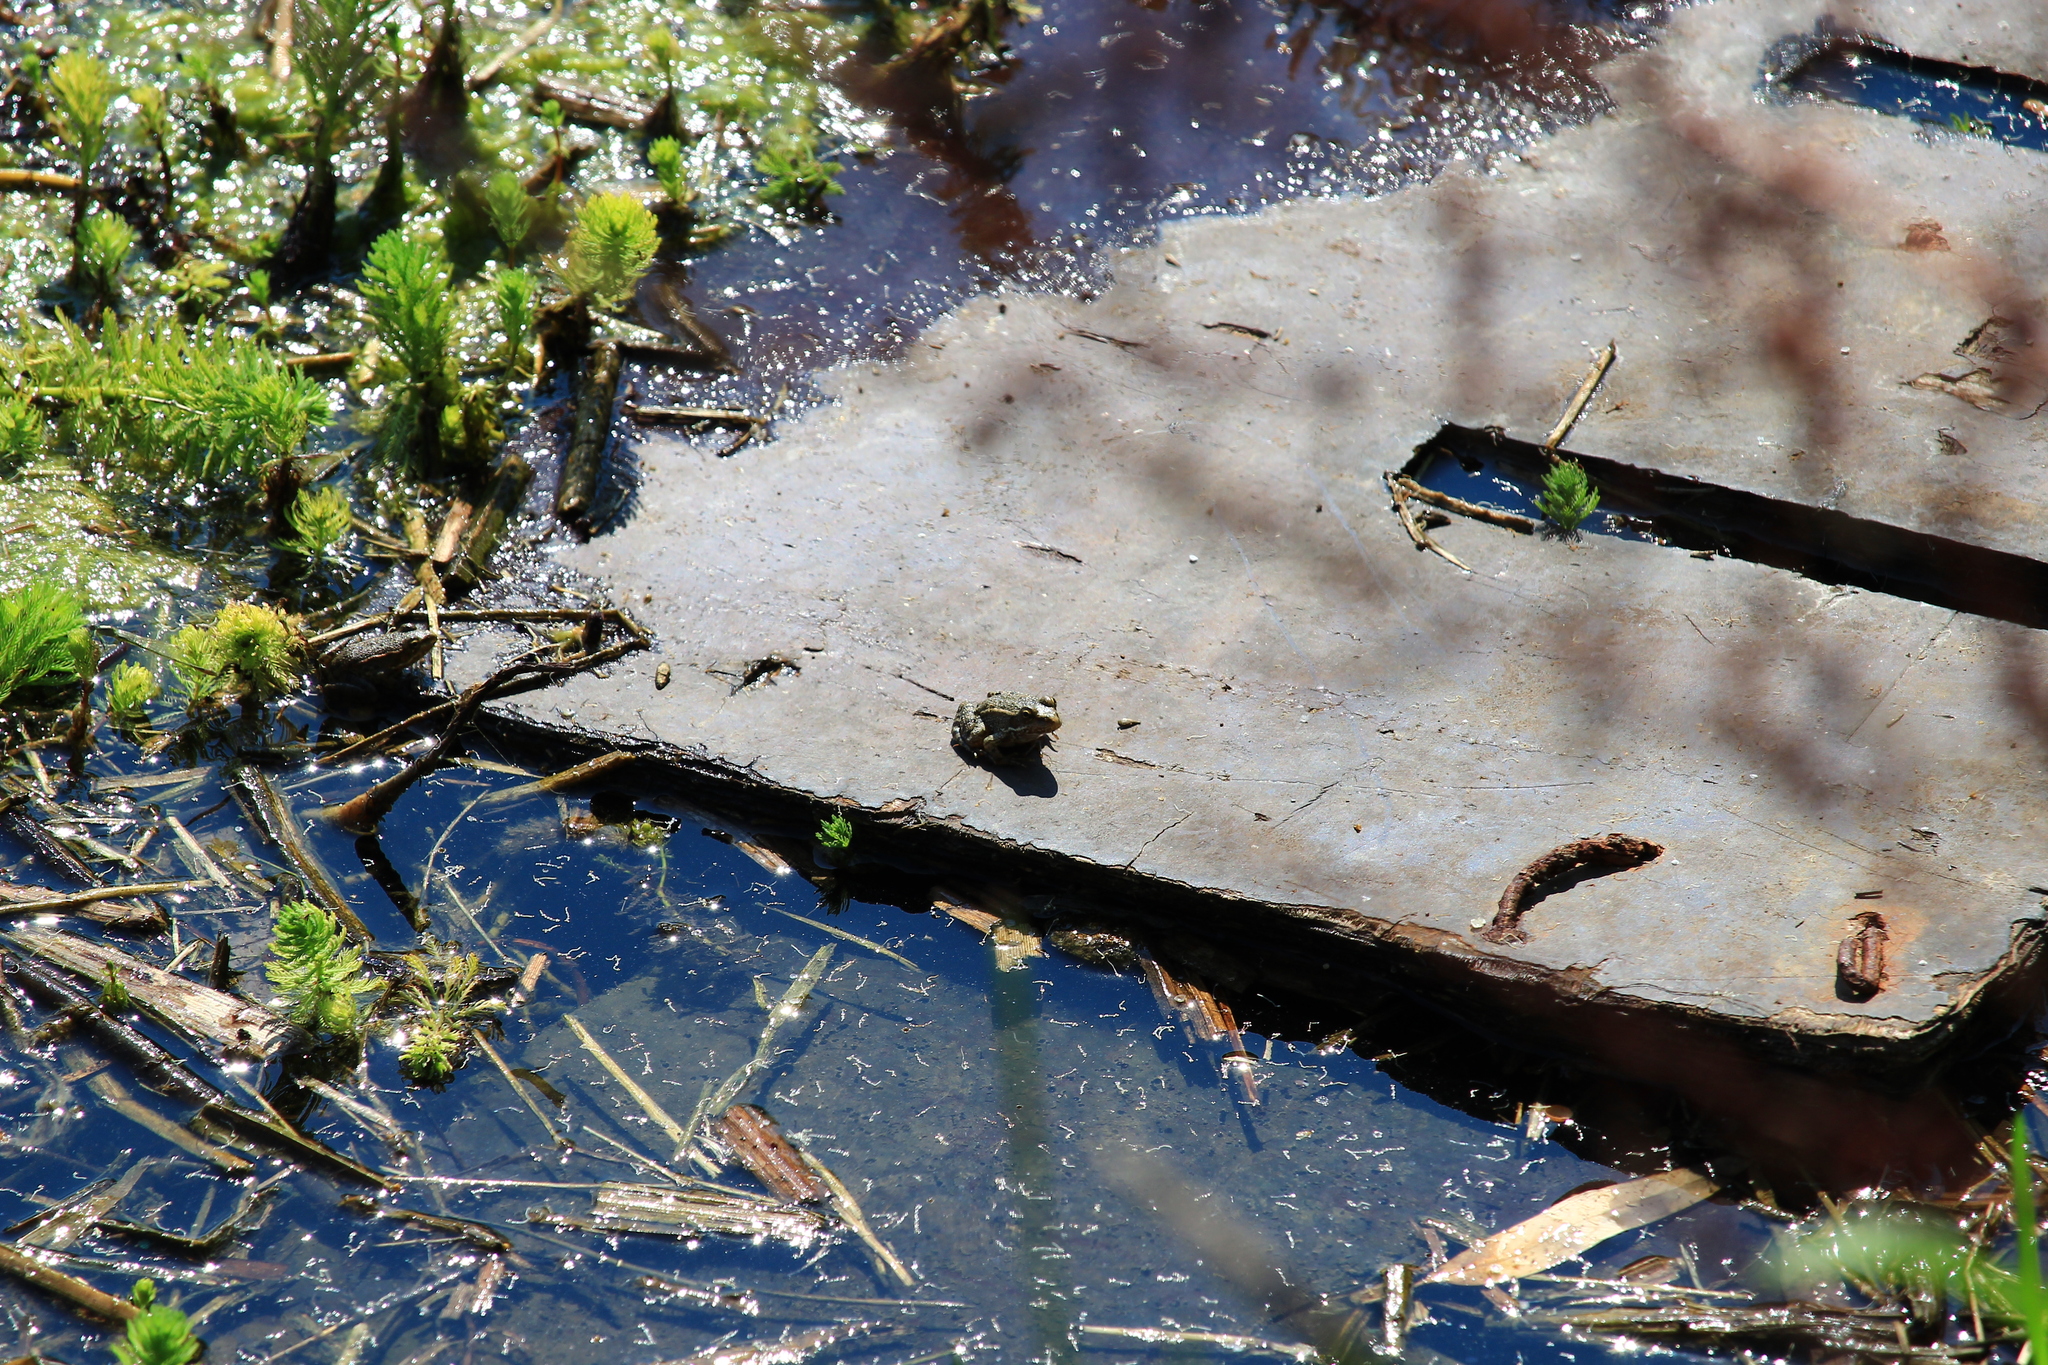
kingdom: Animalia
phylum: Chordata
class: Amphibia
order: Anura
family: Ranidae
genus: Pelophylax
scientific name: Pelophylax ridibundus
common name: Marsh frog
